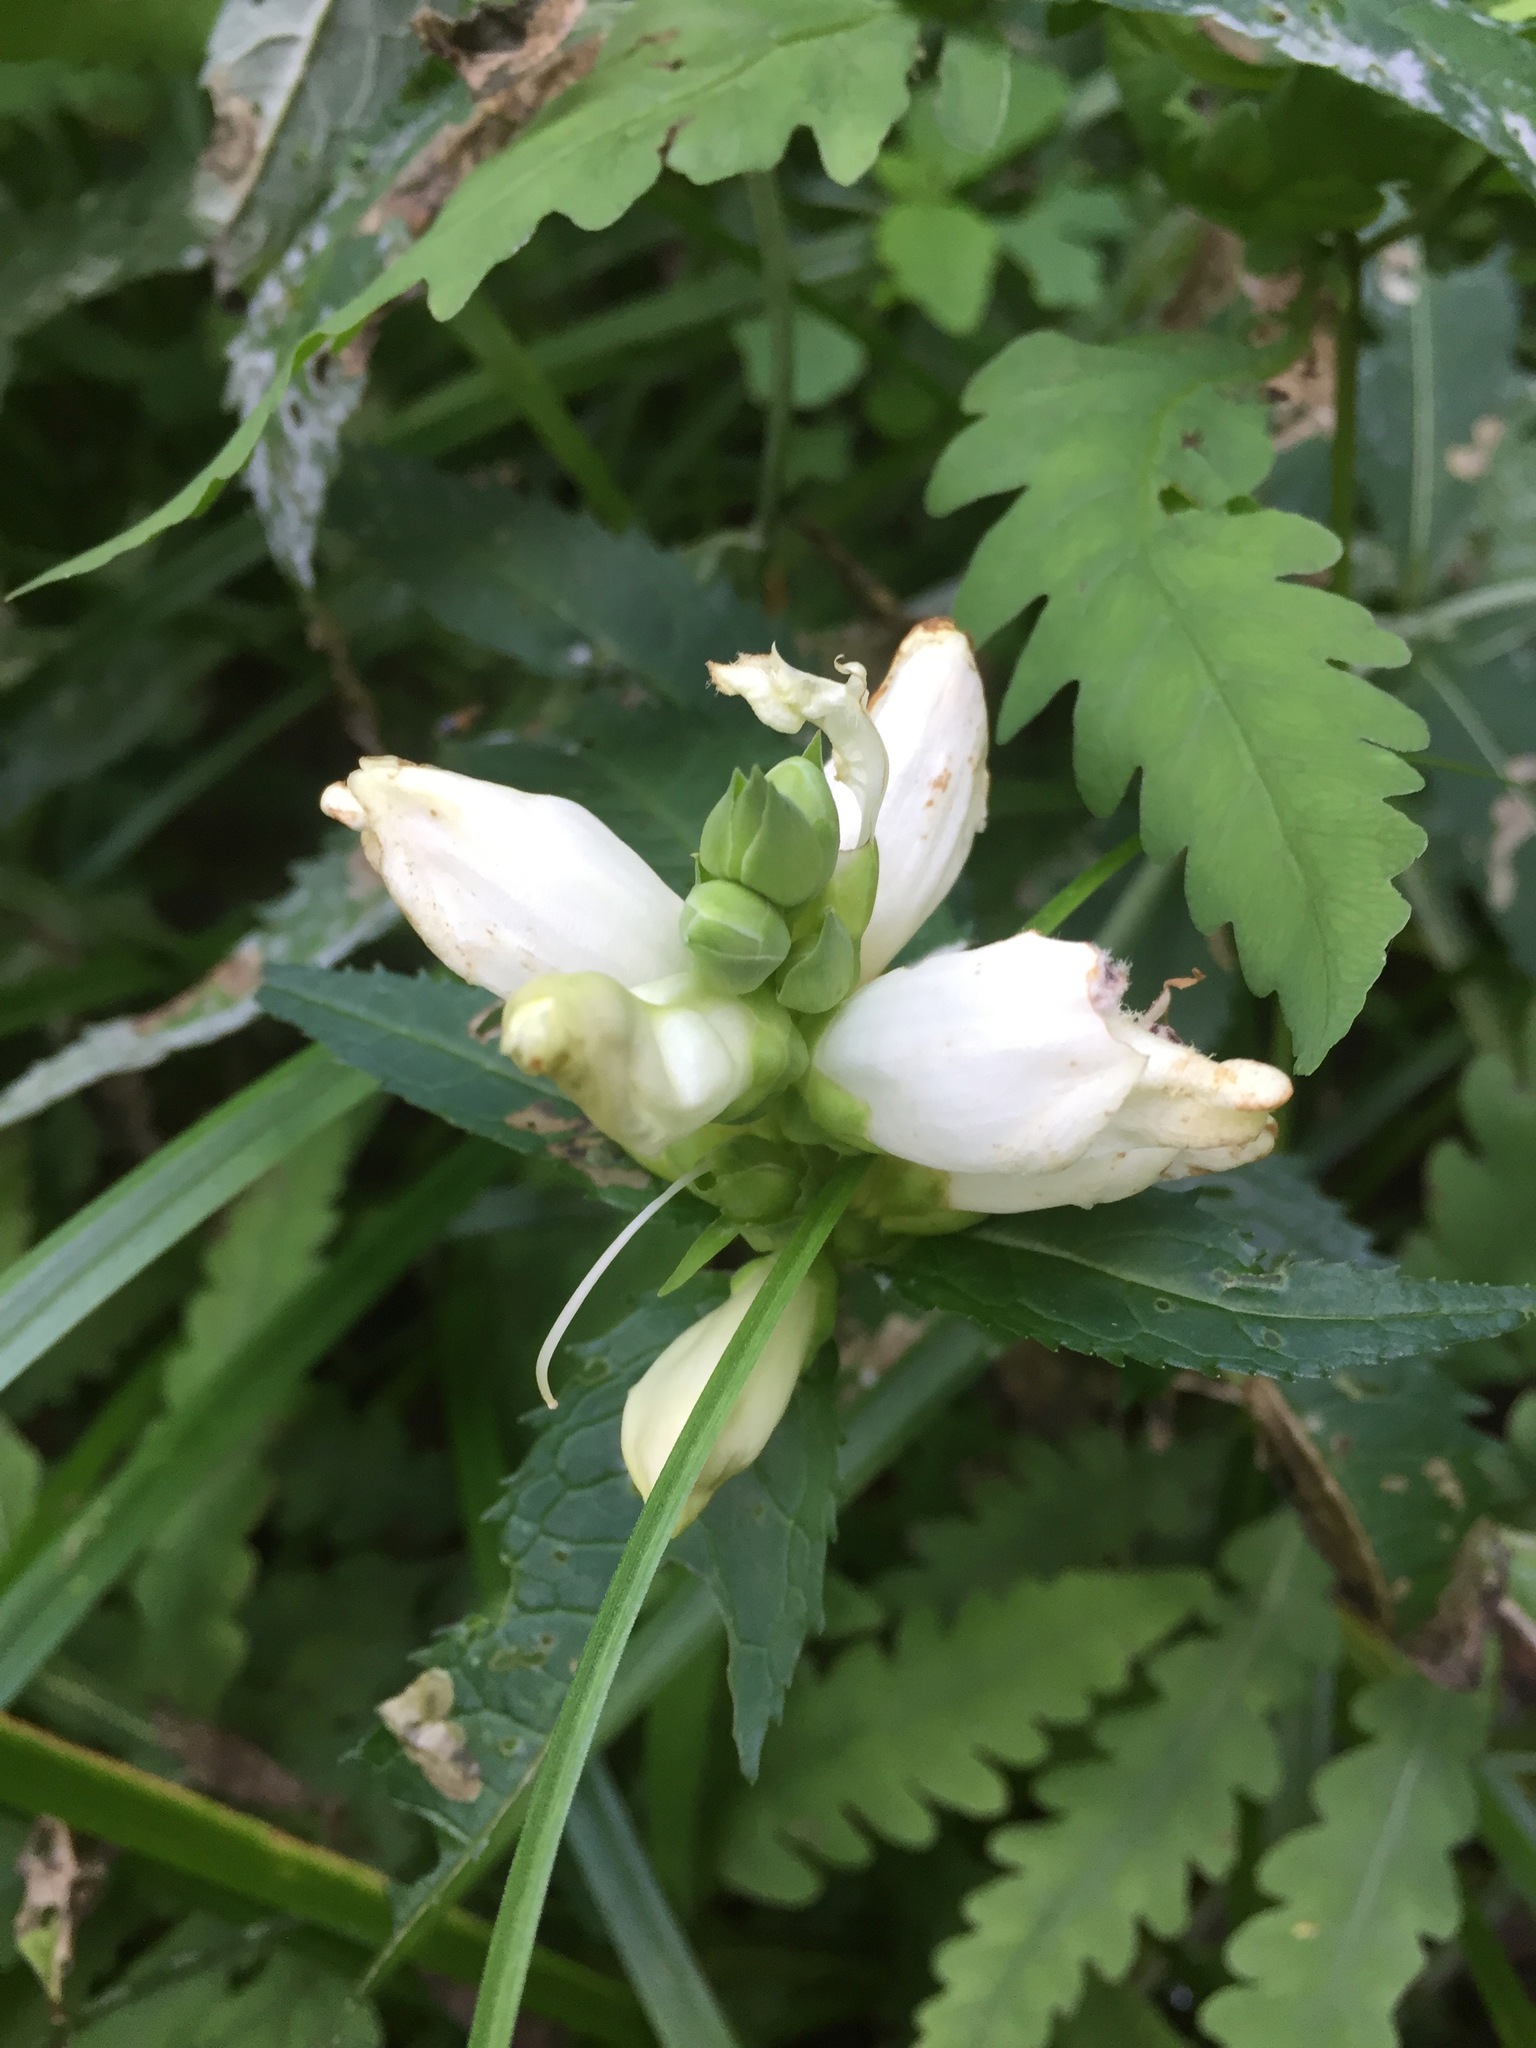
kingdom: Plantae
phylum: Tracheophyta
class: Magnoliopsida
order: Lamiales
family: Plantaginaceae
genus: Chelone
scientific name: Chelone glabra
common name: Snakehead
